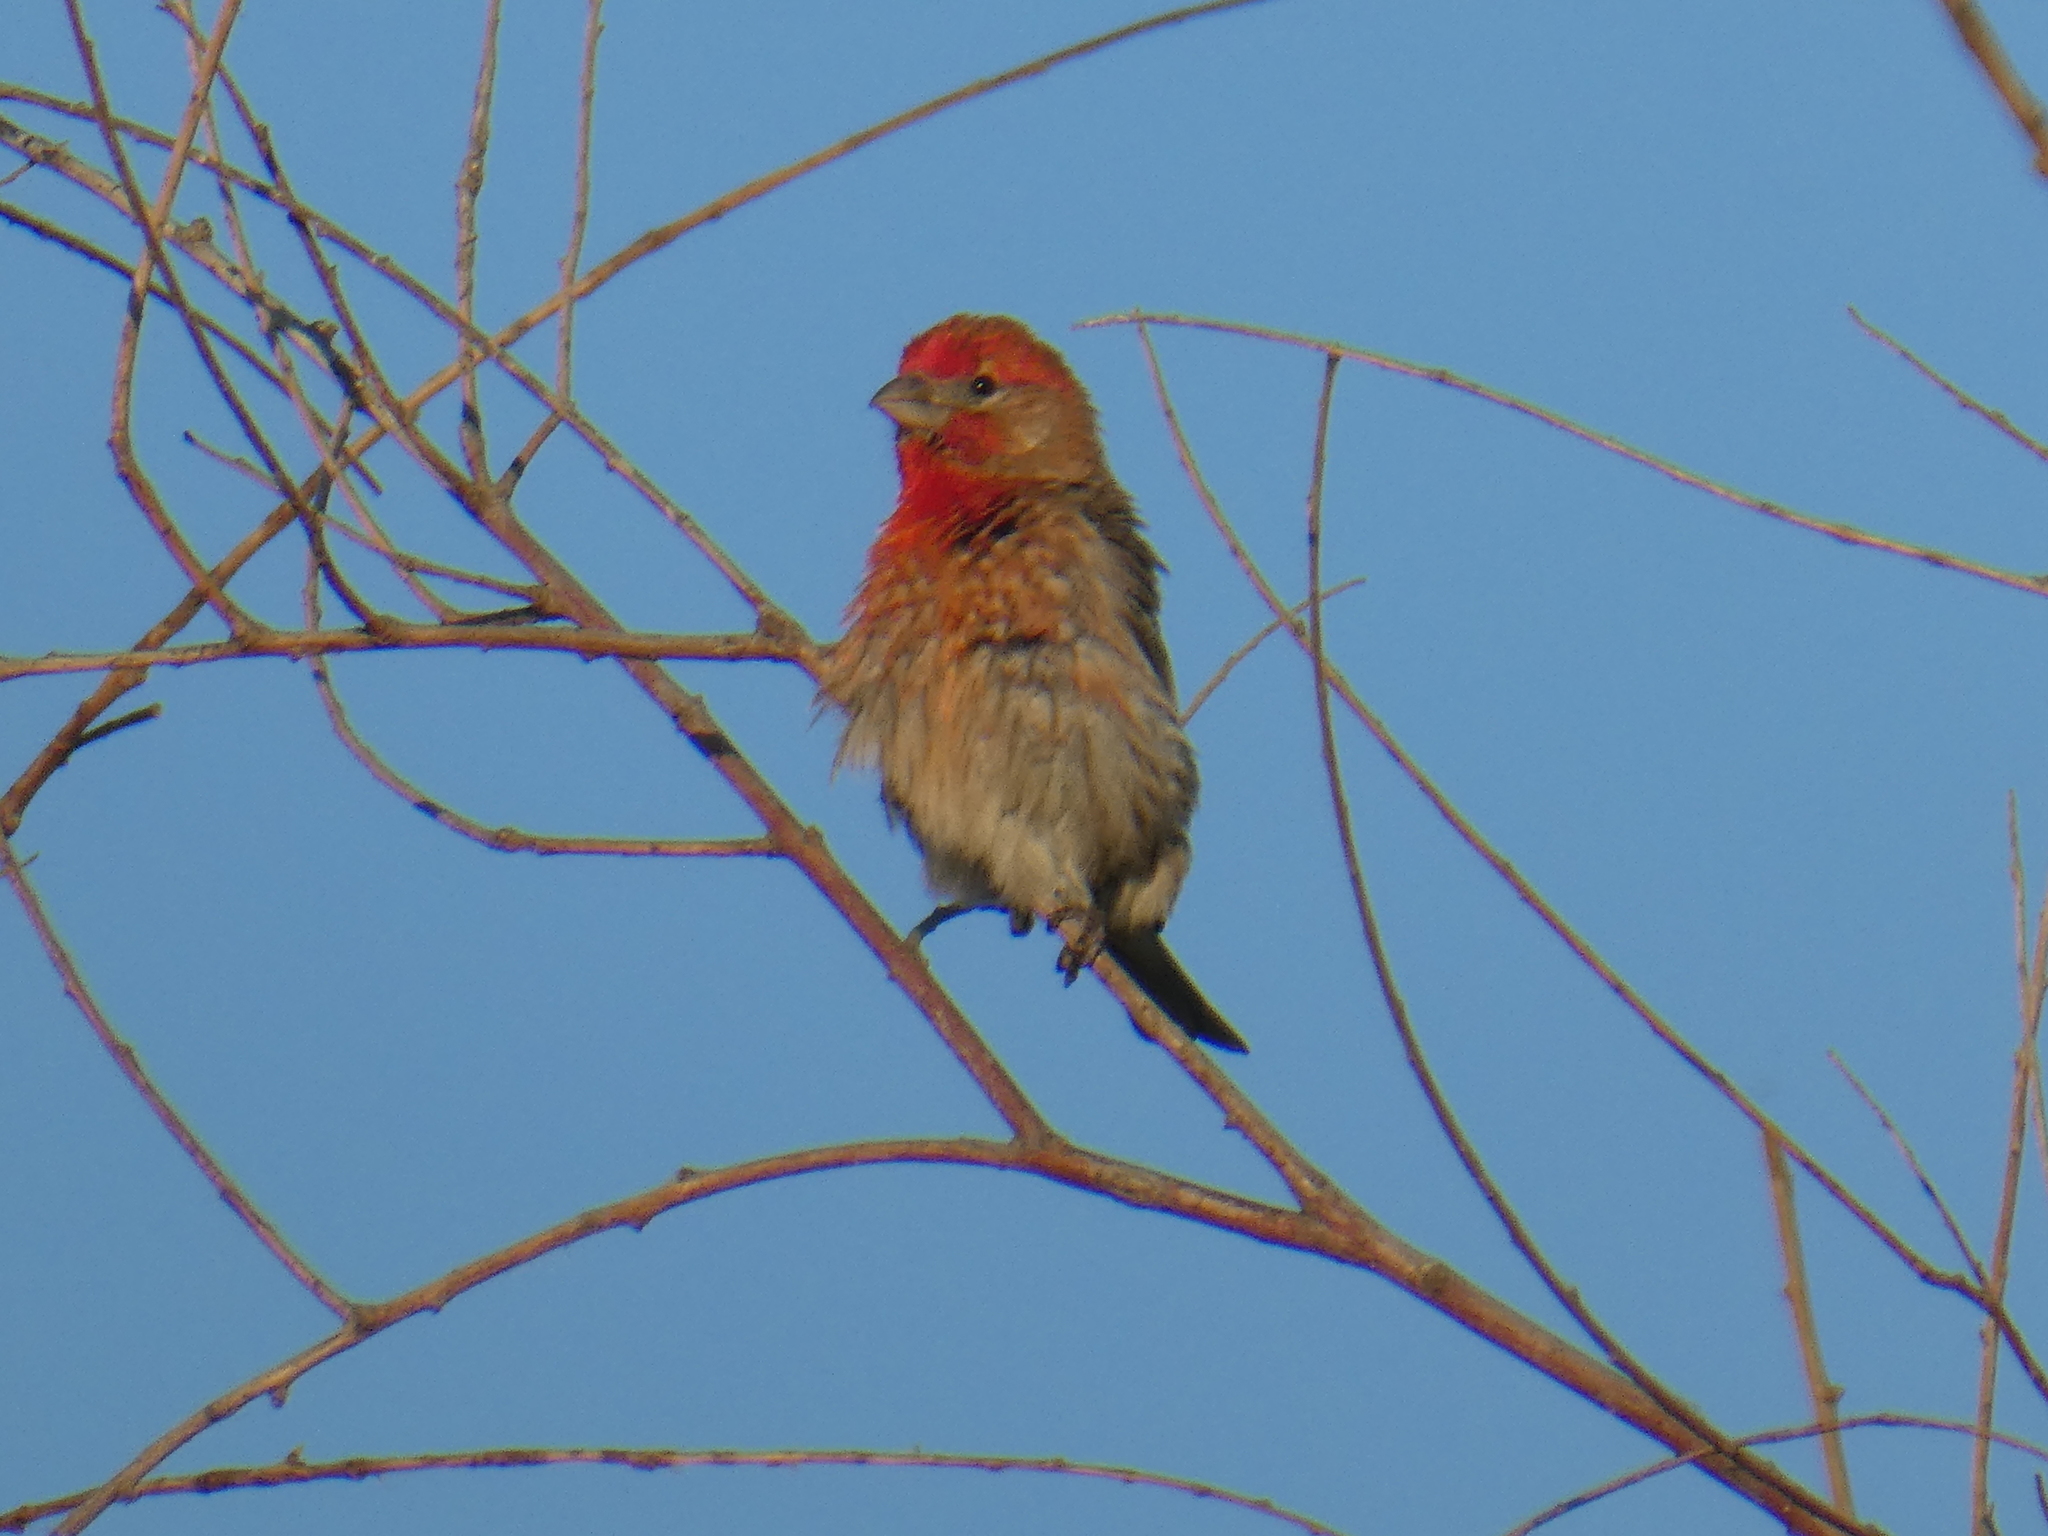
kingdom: Animalia
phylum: Chordata
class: Aves
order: Passeriformes
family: Fringillidae
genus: Haemorhous
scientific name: Haemorhous mexicanus
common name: House finch
